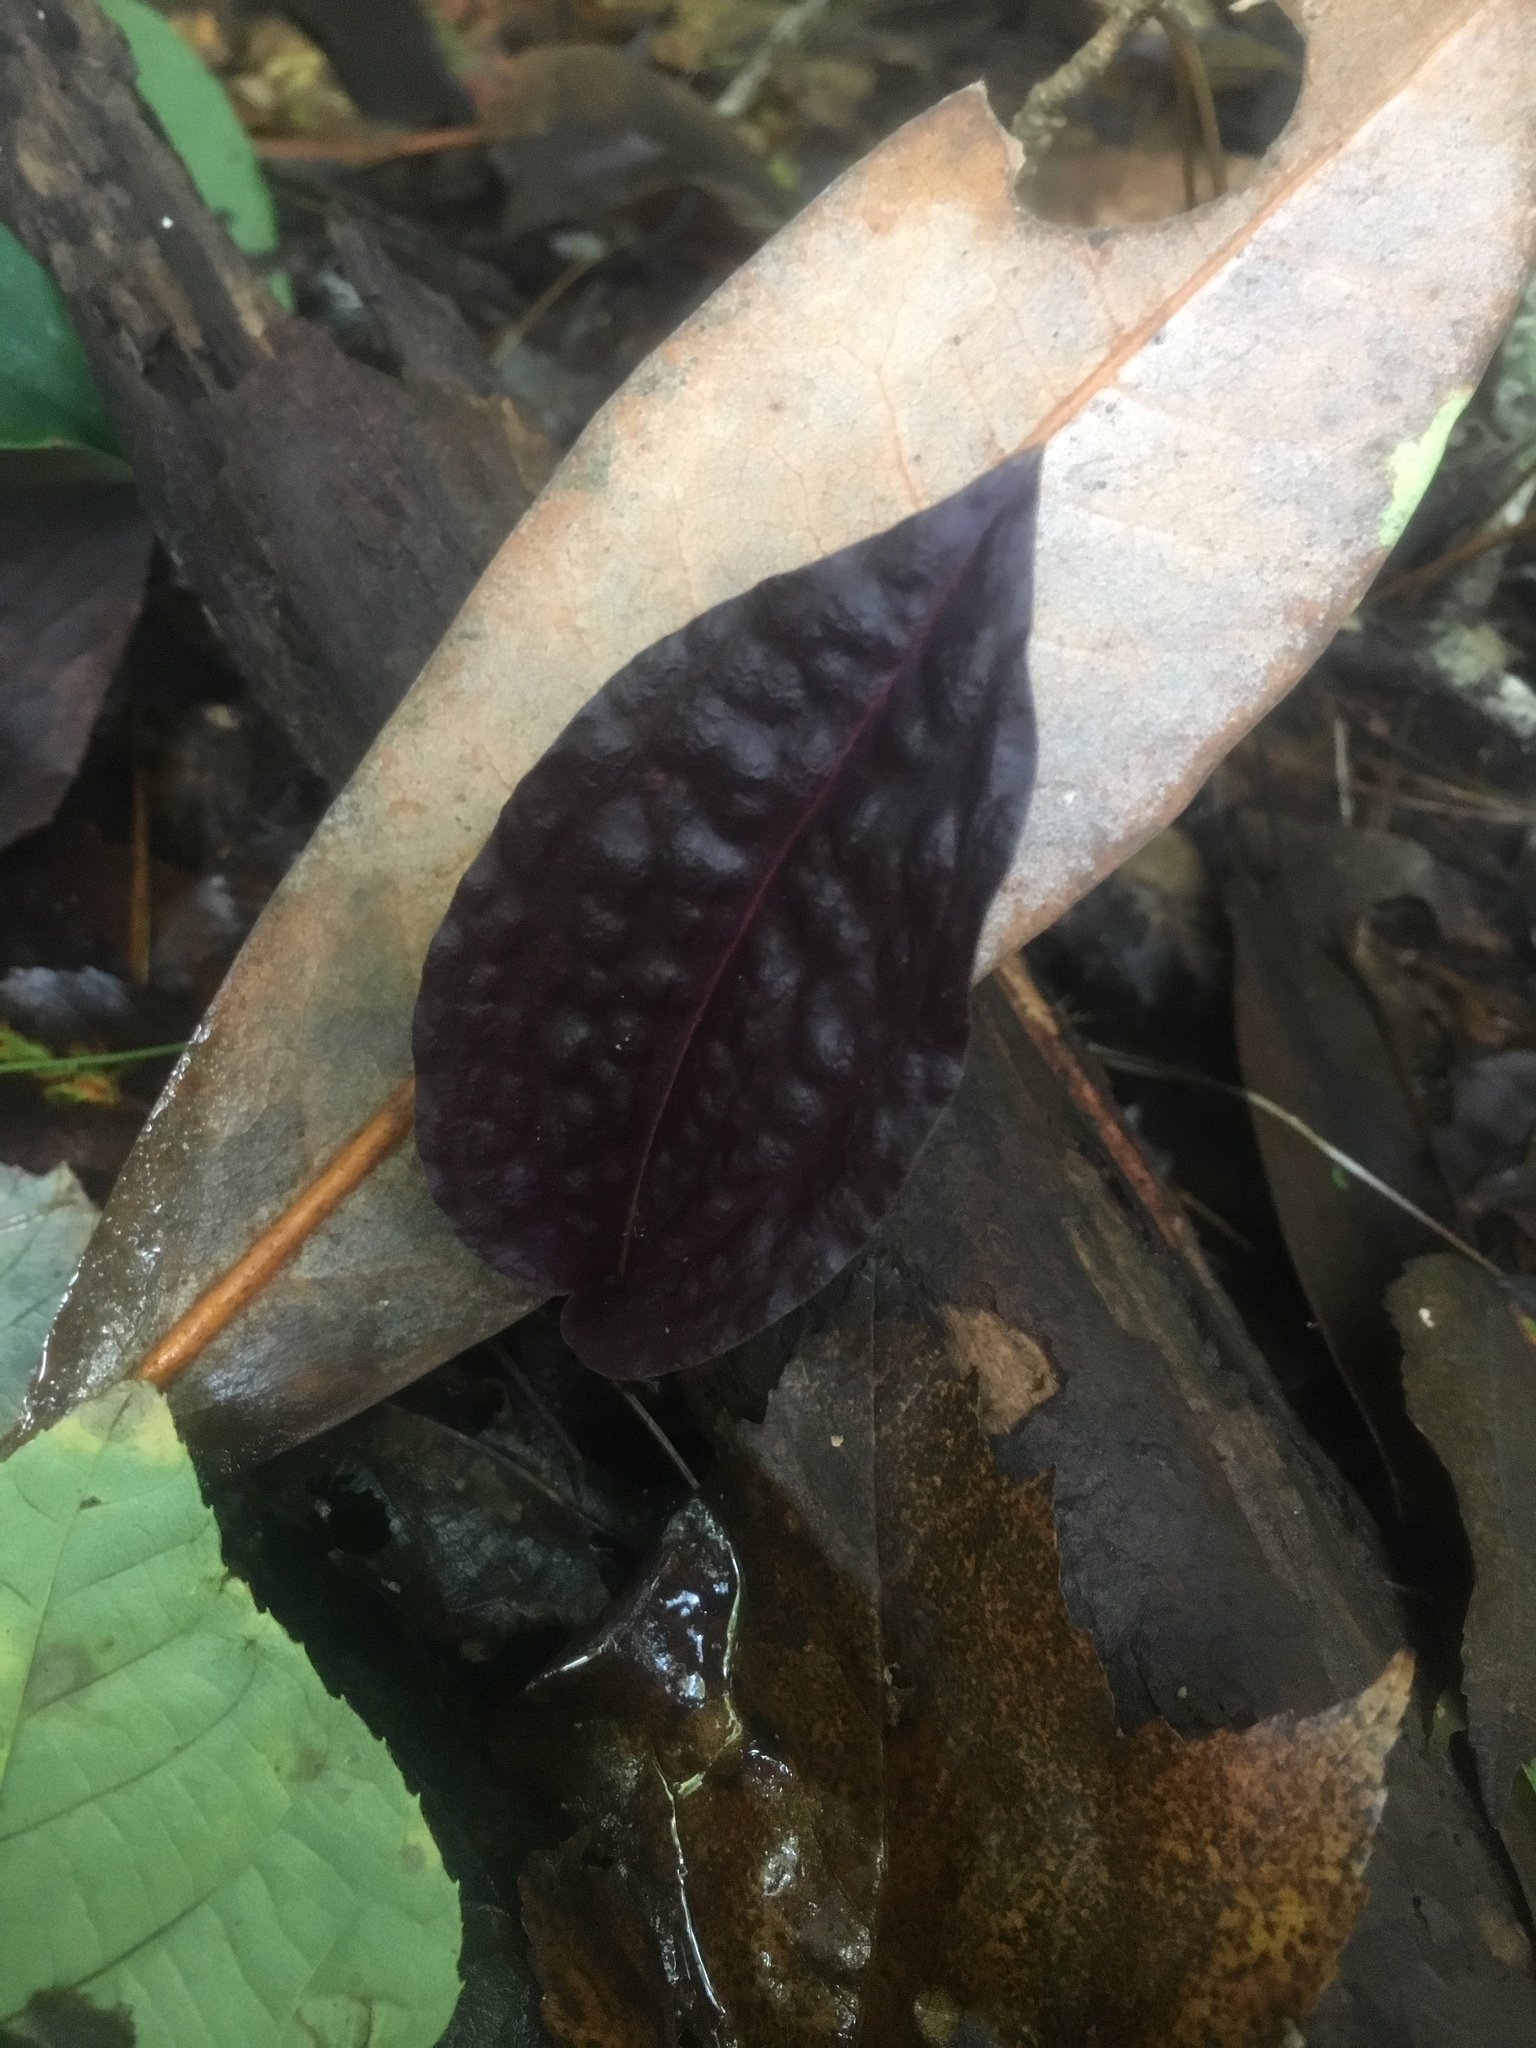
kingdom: Plantae
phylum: Tracheophyta
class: Liliopsida
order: Asparagales
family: Orchidaceae
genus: Tipularia
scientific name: Tipularia discolor
